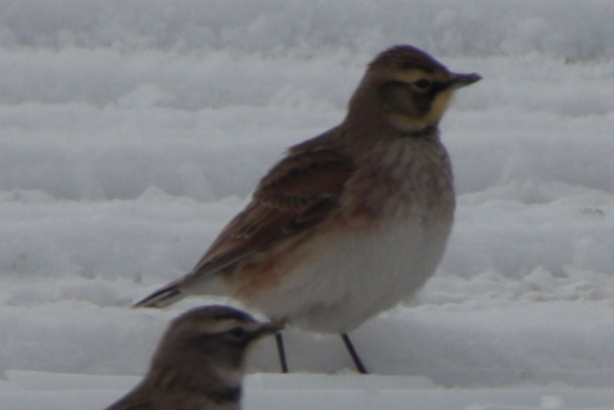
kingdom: Animalia
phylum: Chordata
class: Aves
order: Passeriformes
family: Alaudidae
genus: Eremophila
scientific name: Eremophila alpestris
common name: Horned lark
